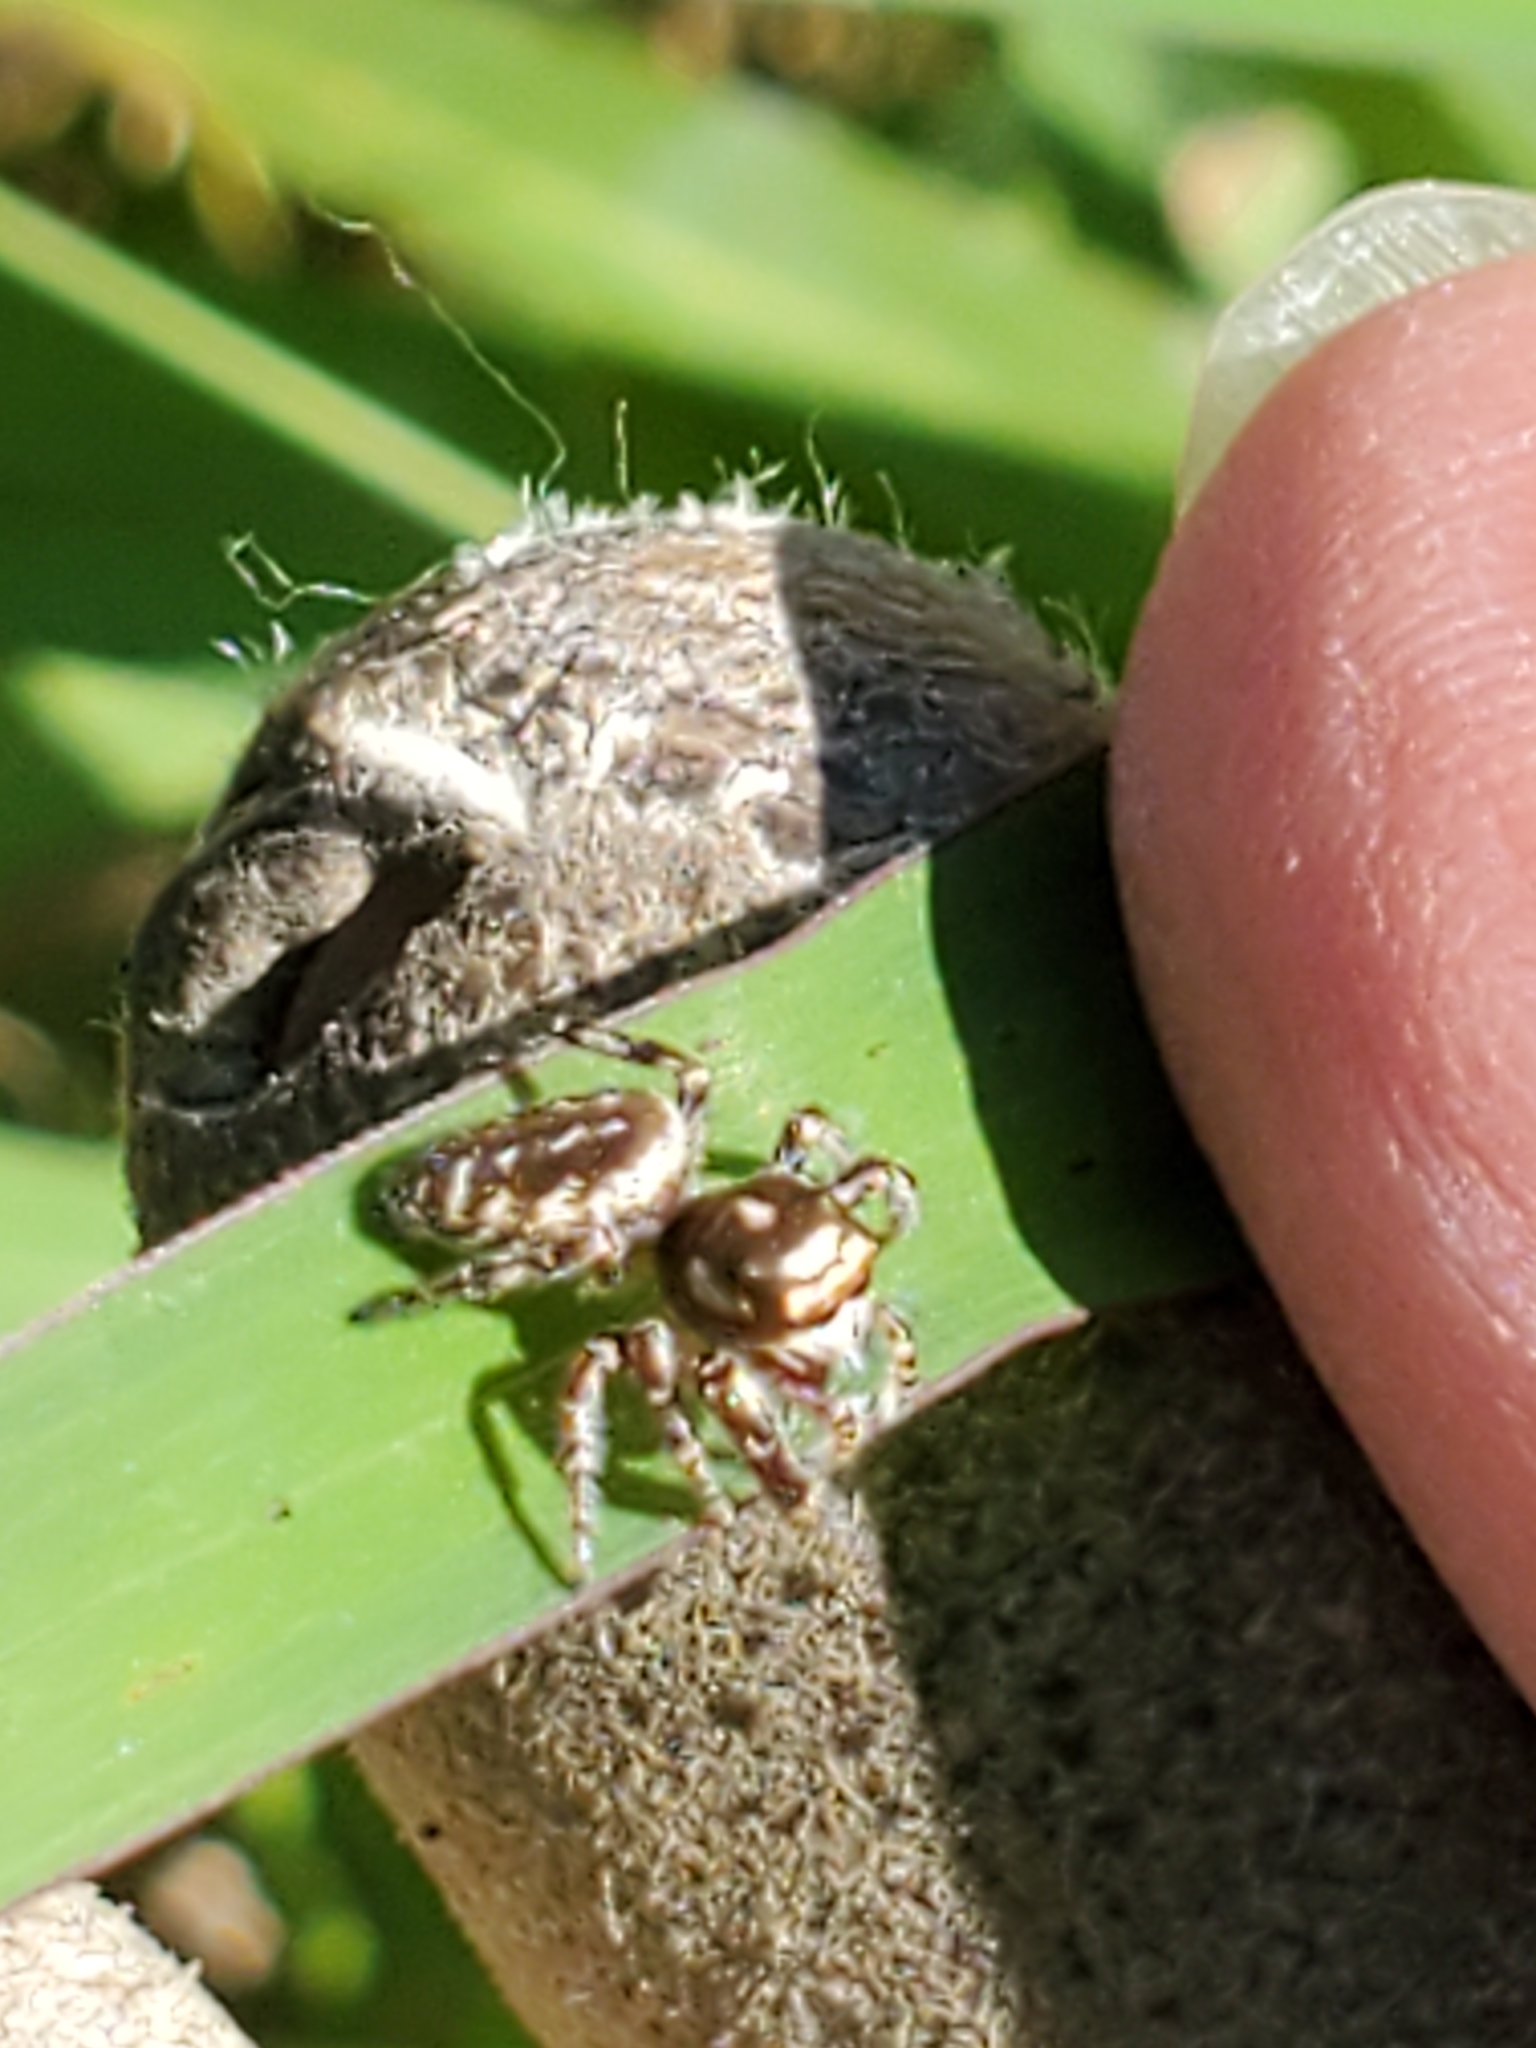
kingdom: Animalia
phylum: Arthropoda
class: Arachnida
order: Araneae
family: Salticidae
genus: Eris
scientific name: Eris militaris
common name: Bronze jumper
